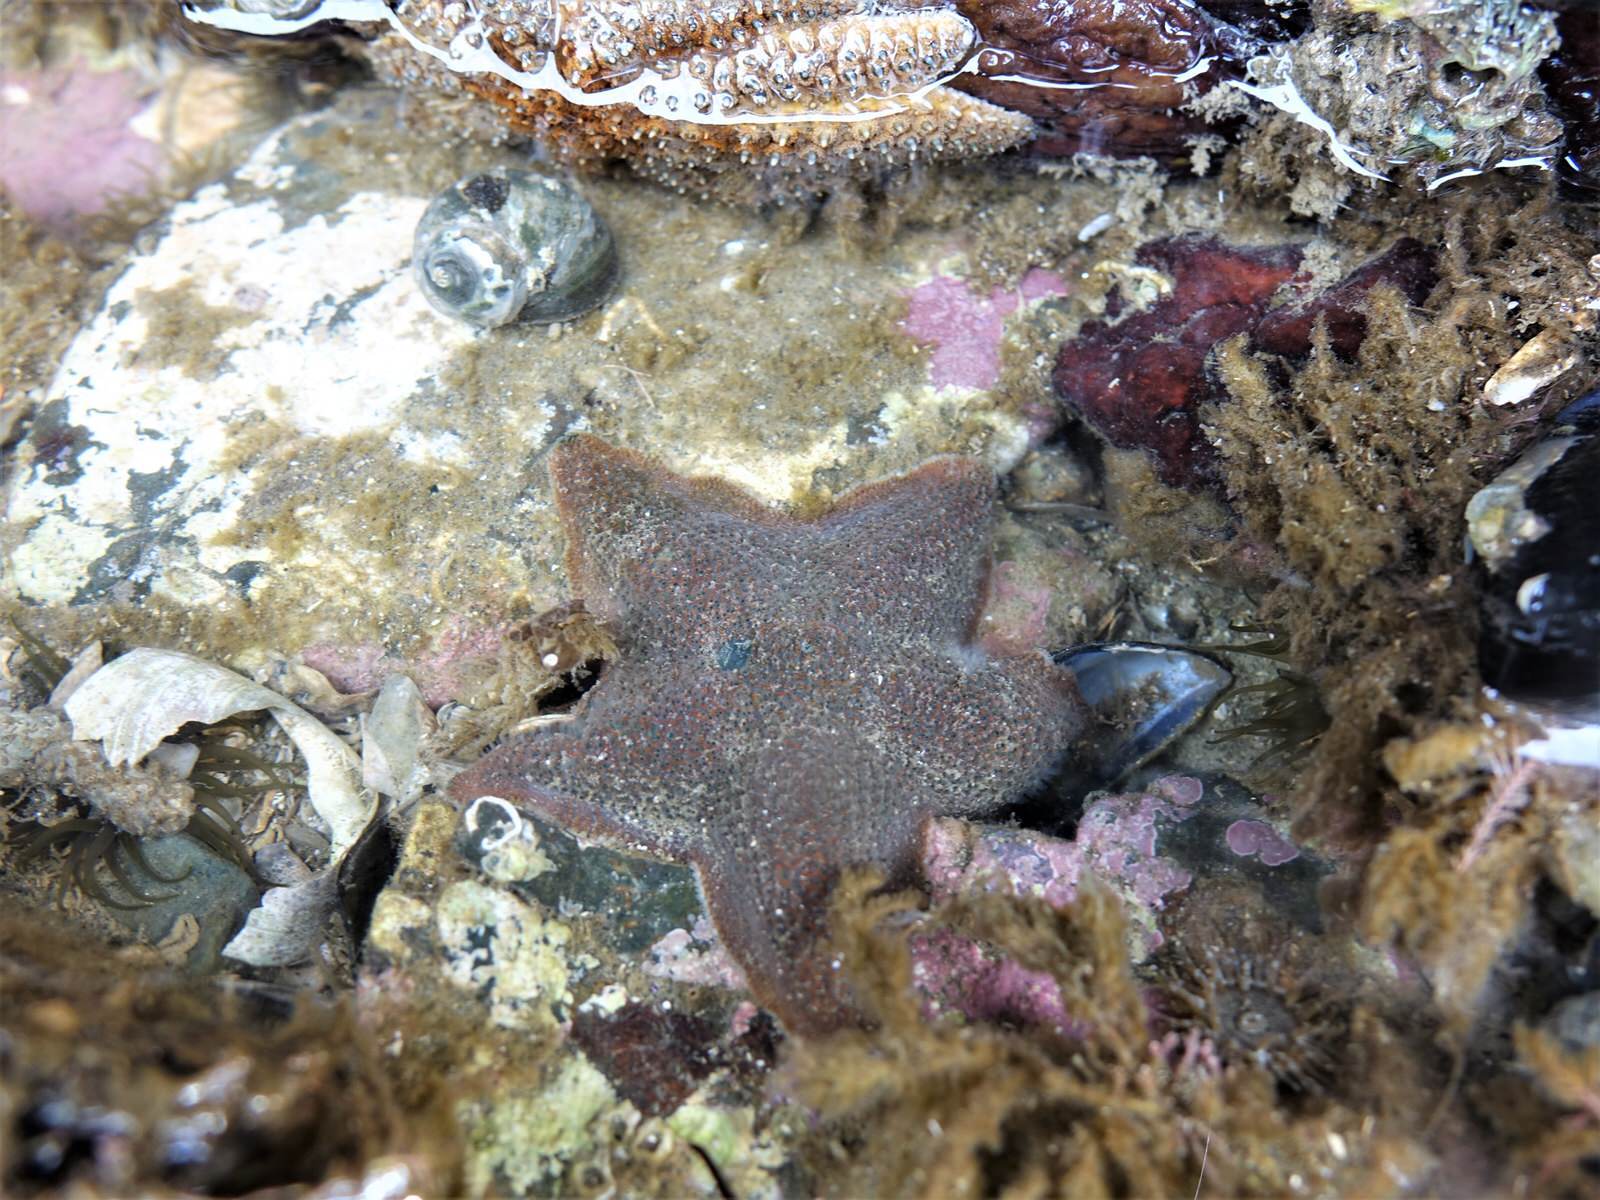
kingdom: Animalia
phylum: Echinodermata
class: Asteroidea
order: Valvatida
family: Asterinidae
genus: Patiriella
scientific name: Patiriella regularis
